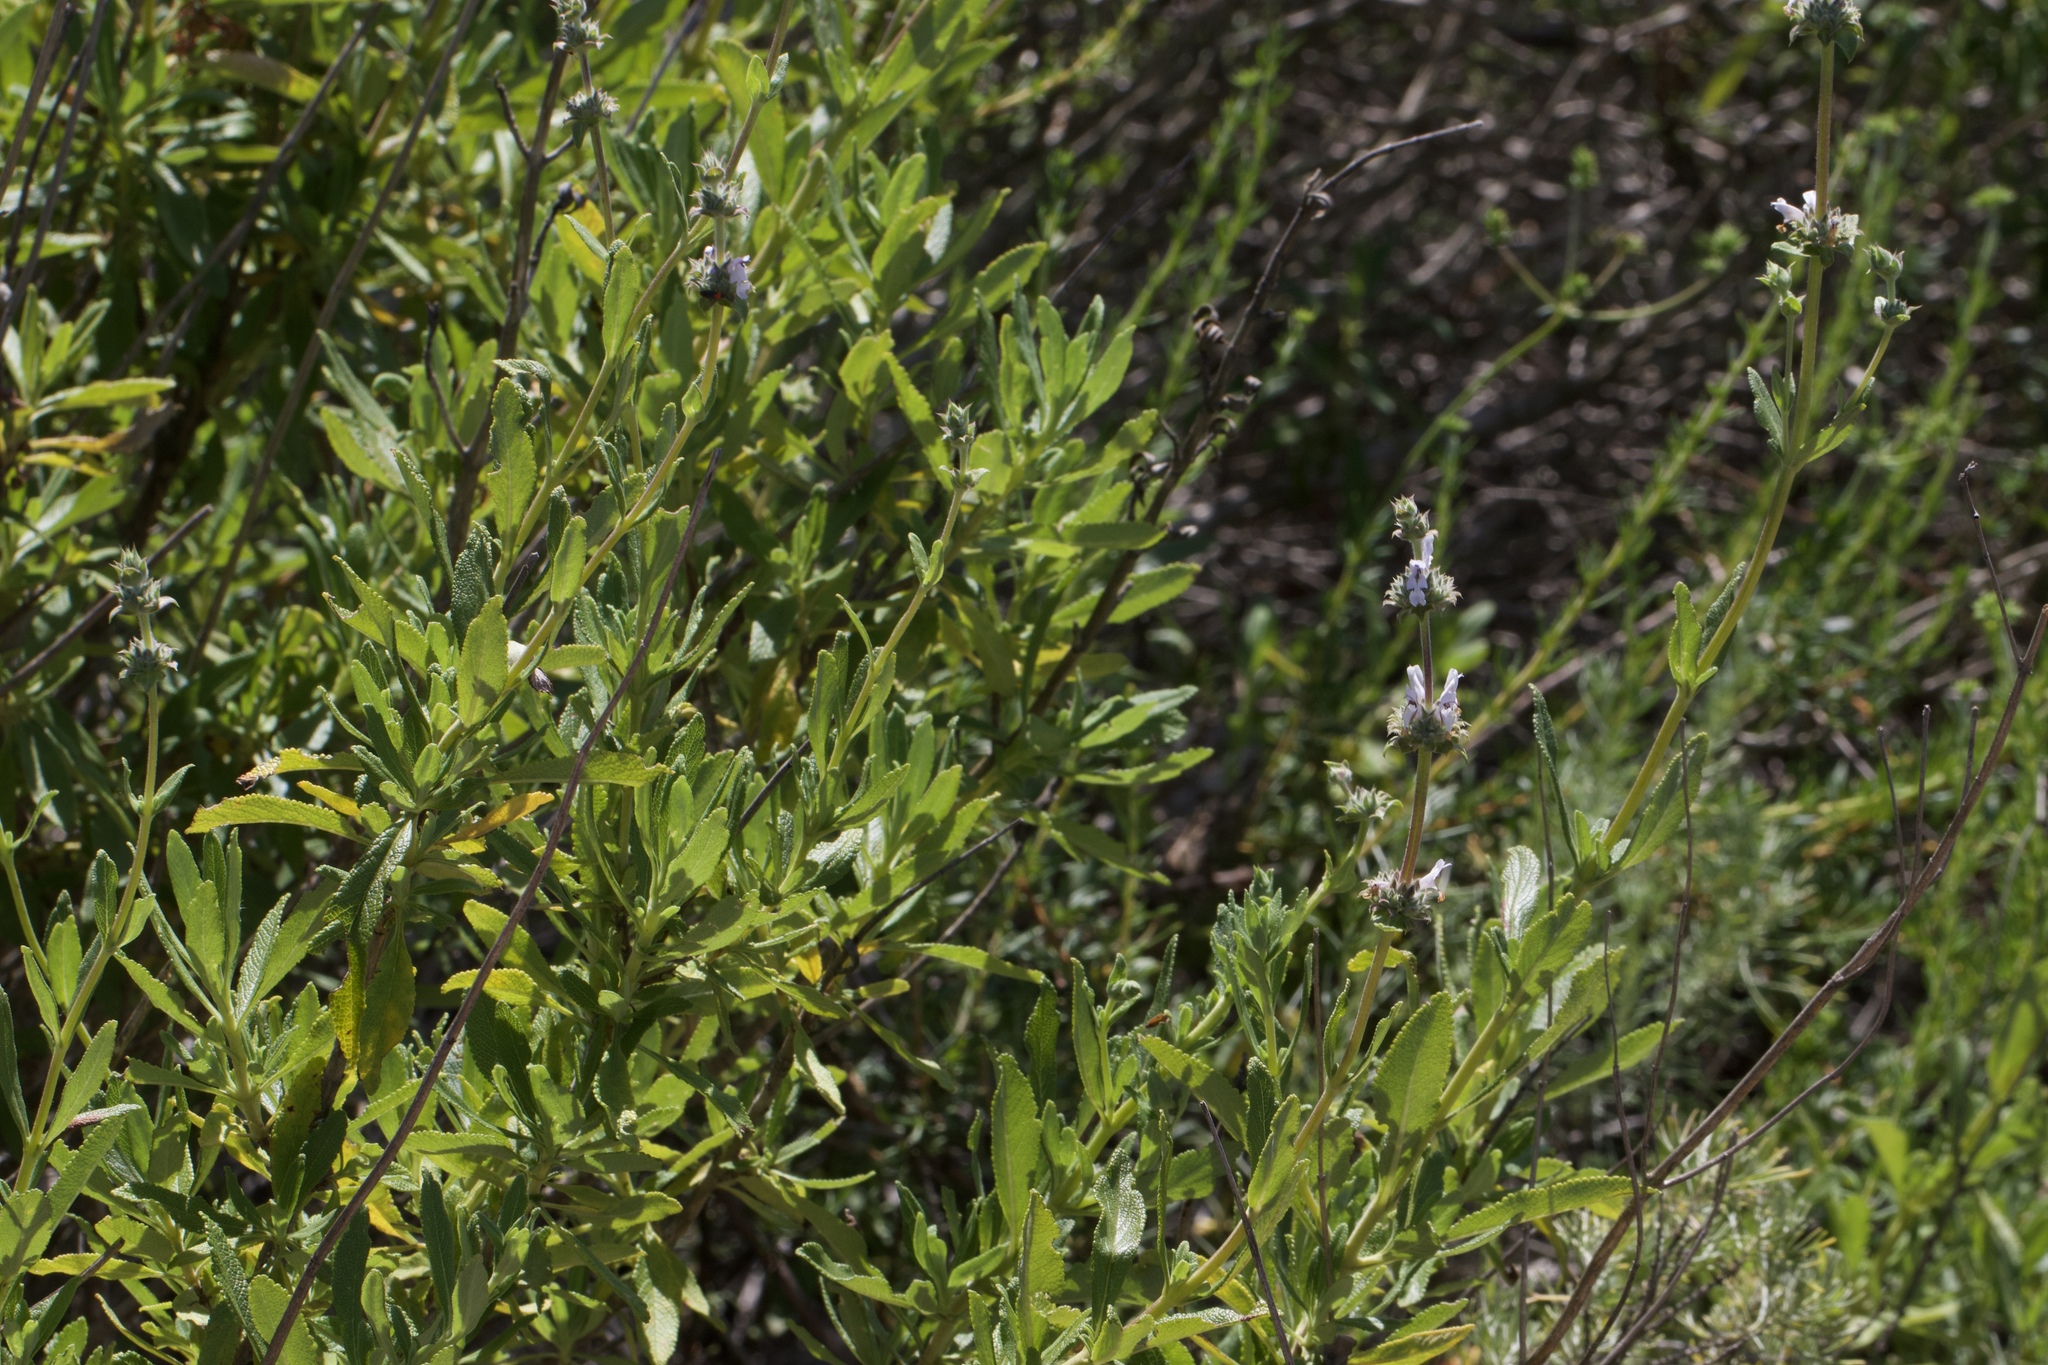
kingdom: Plantae
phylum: Tracheophyta
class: Magnoliopsida
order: Lamiales
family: Lamiaceae
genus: Salvia
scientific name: Salvia mellifera
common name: Black sage
